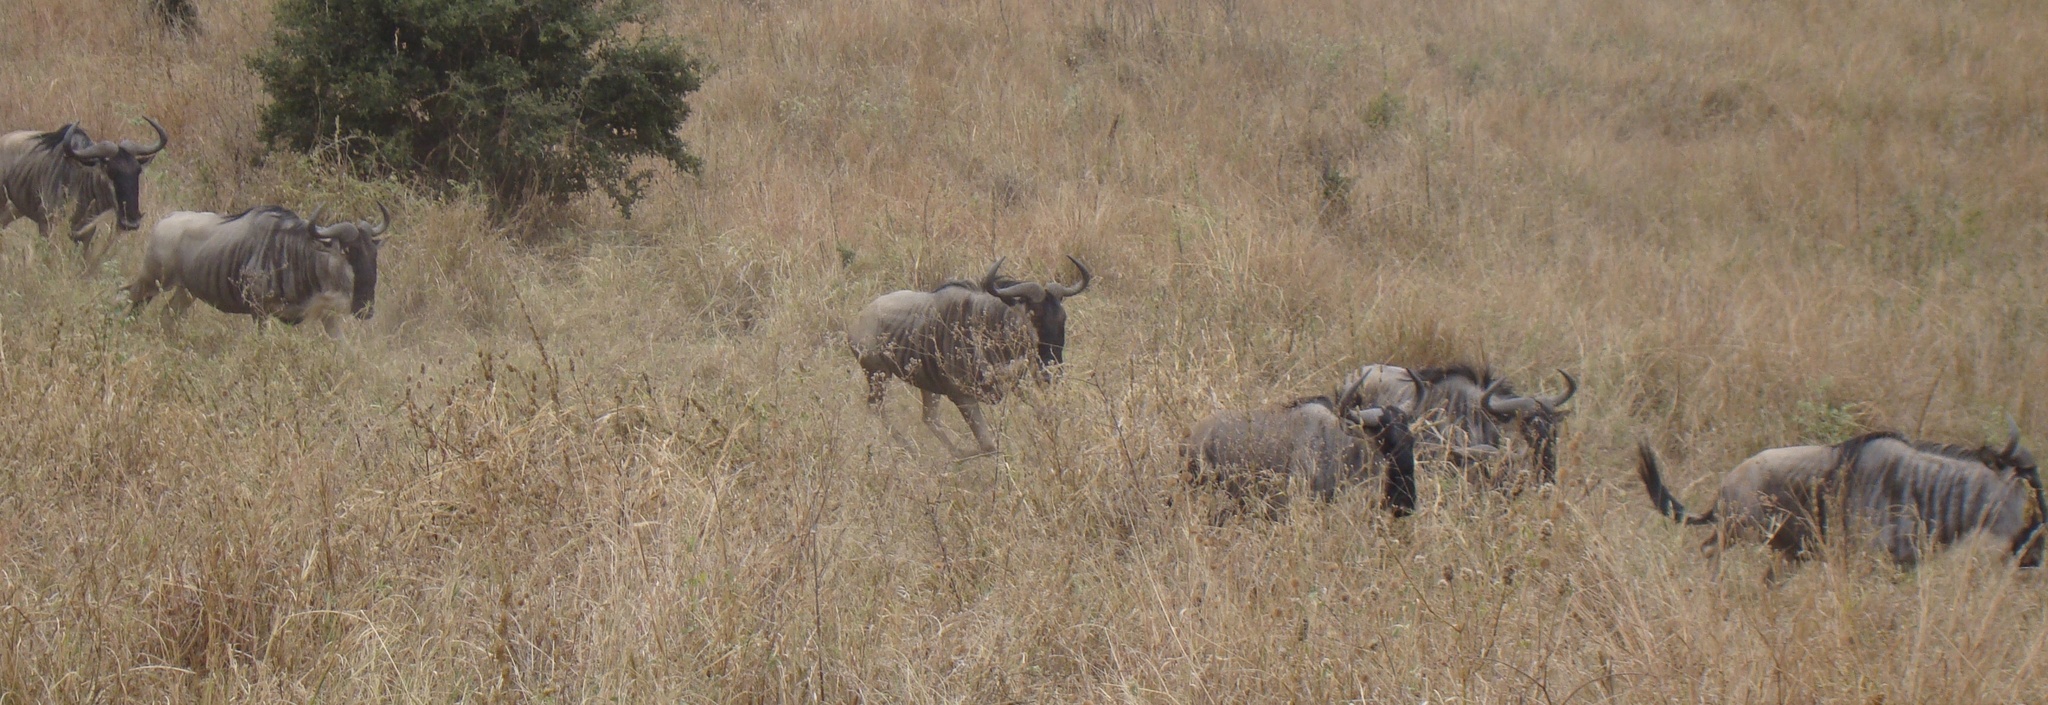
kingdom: Animalia
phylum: Chordata
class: Mammalia
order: Artiodactyla
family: Bovidae
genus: Connochaetes
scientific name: Connochaetes taurinus
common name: Blue wildebeest
